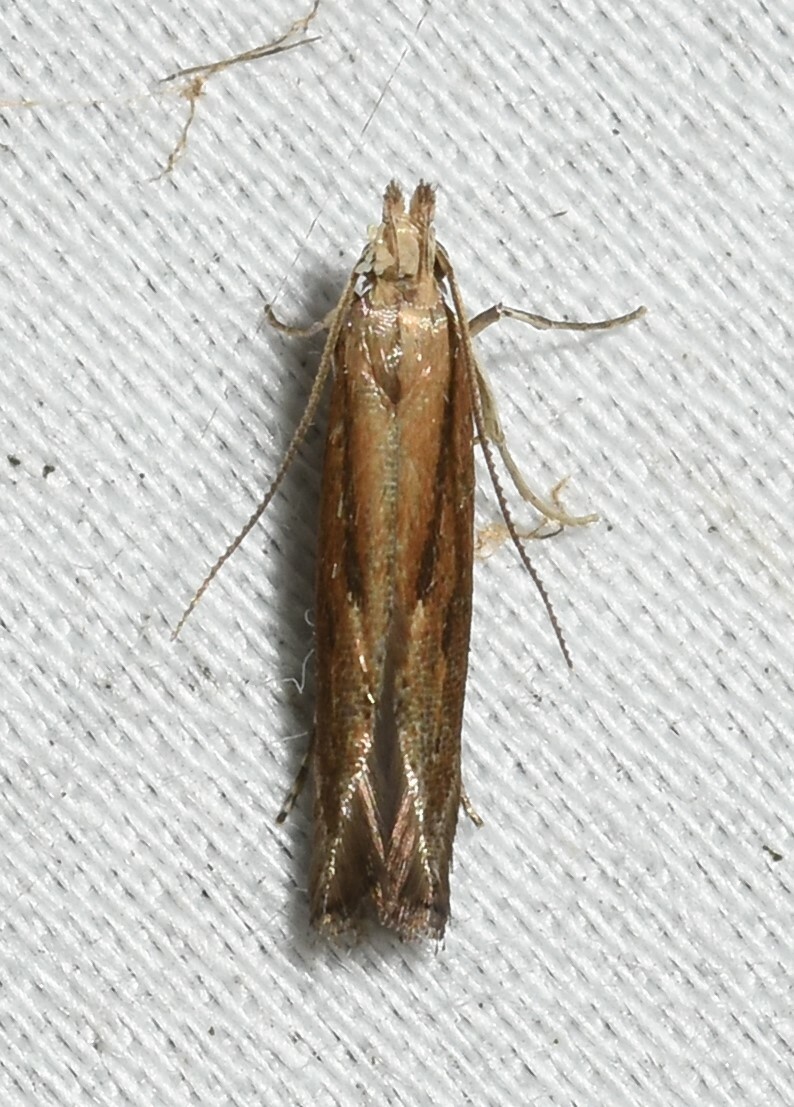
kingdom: Animalia
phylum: Arthropoda
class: Insecta
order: Lepidoptera
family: Gelechiidae
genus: Isophrictis
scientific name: Isophrictis anteliella
